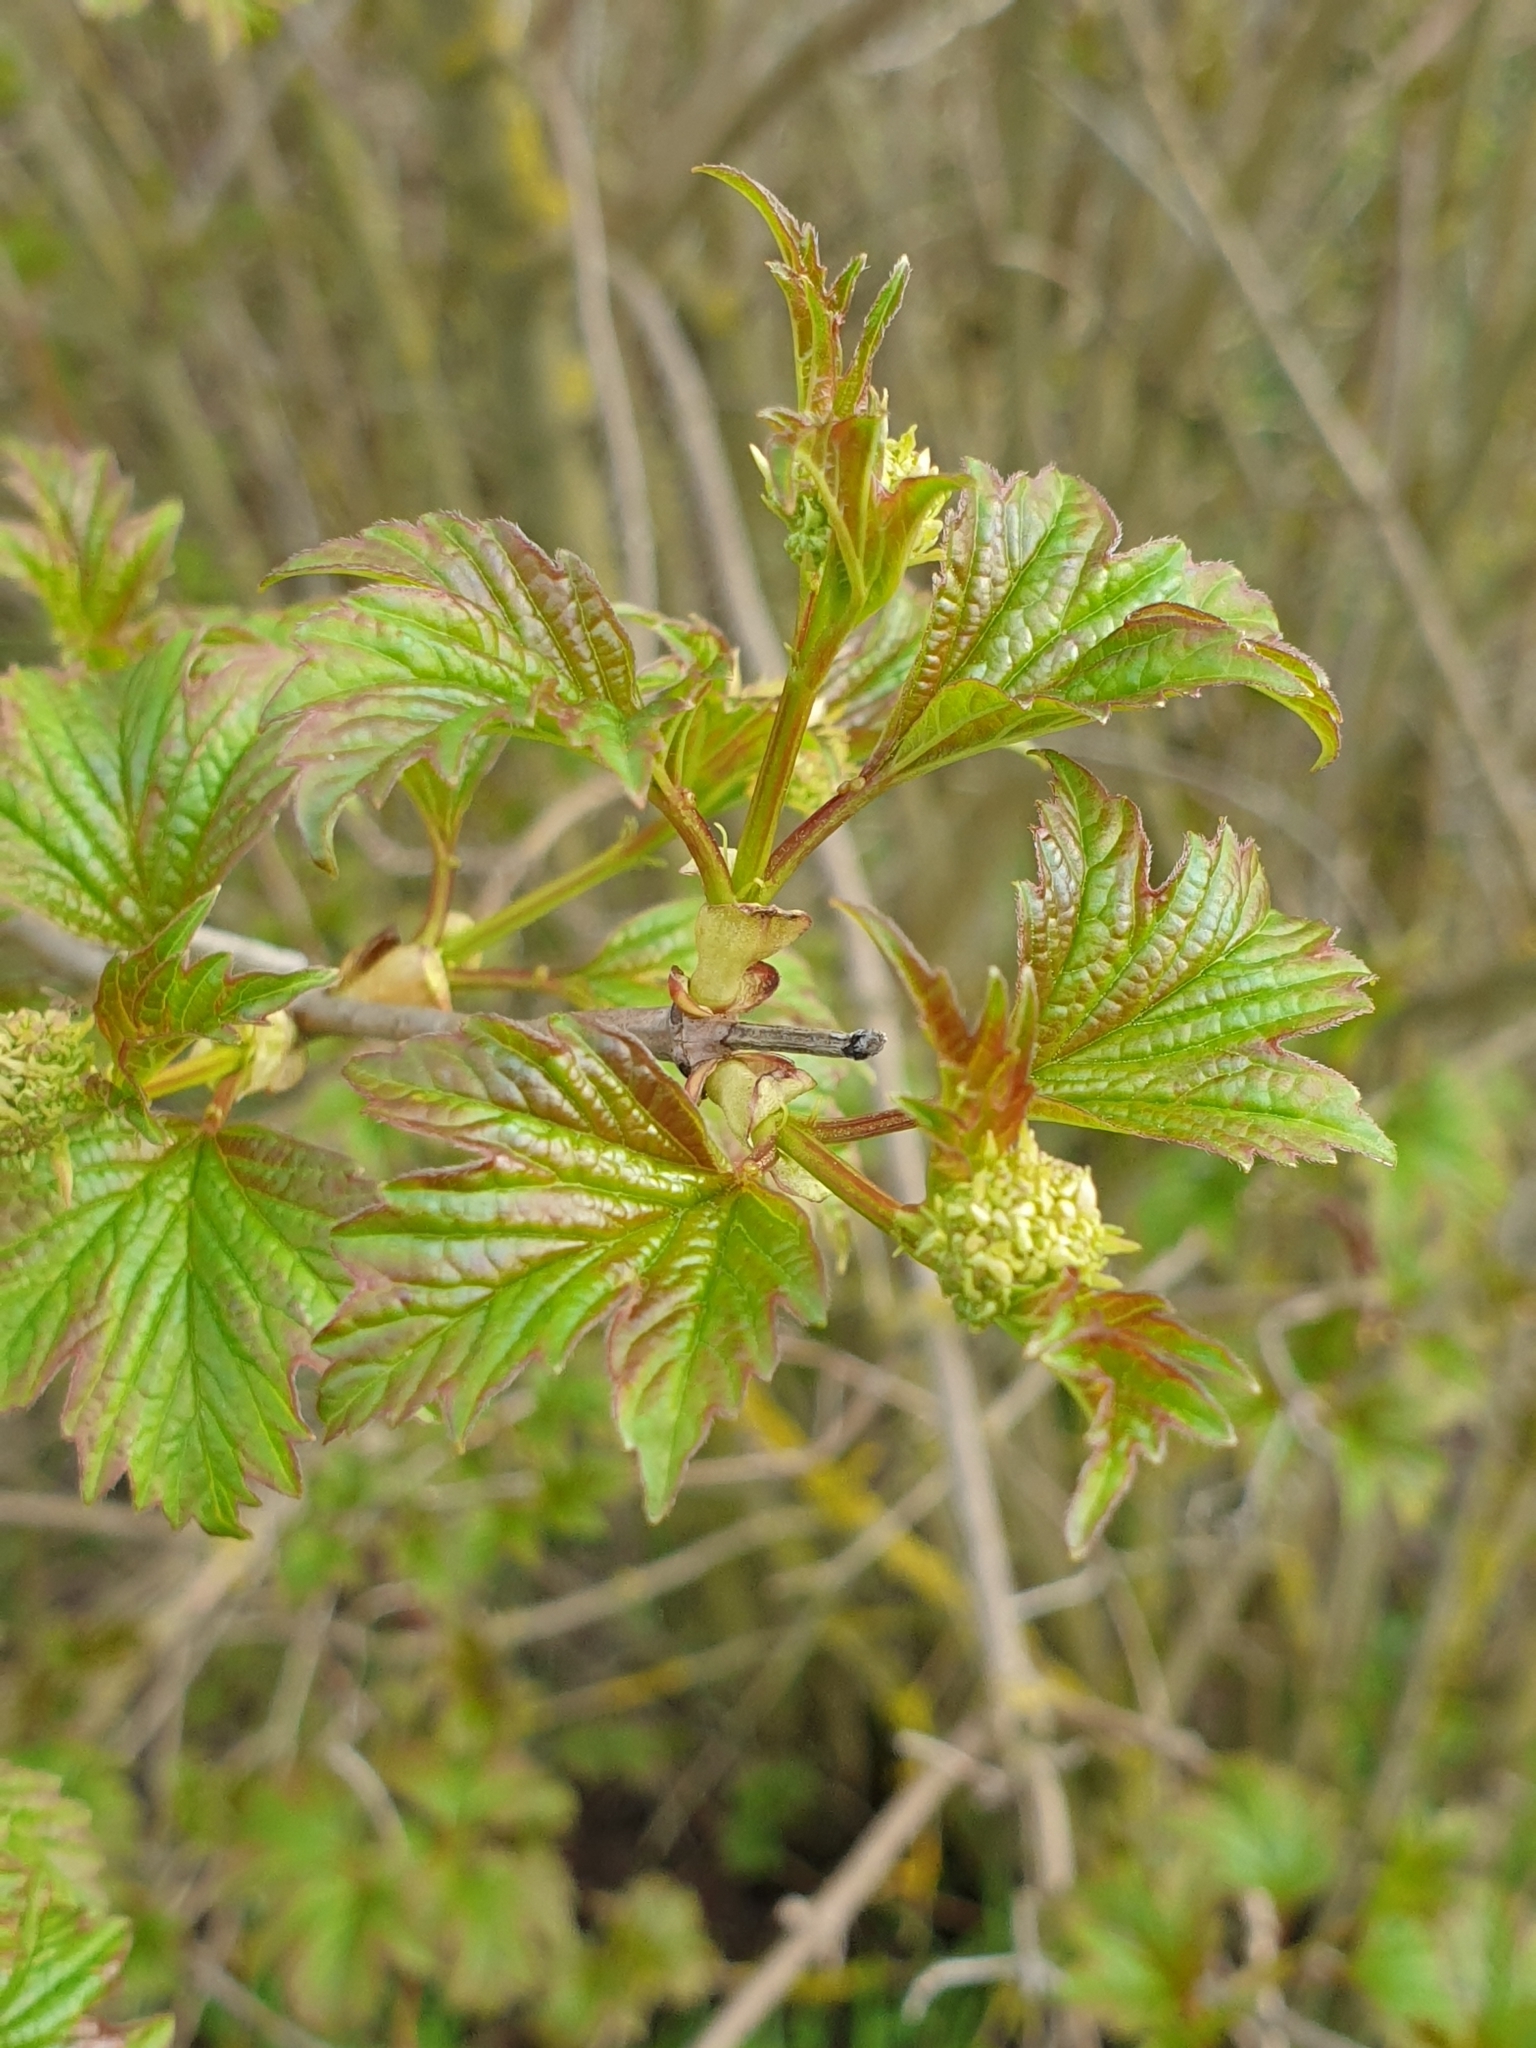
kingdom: Plantae
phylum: Tracheophyta
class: Magnoliopsida
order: Dipsacales
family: Viburnaceae
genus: Viburnum
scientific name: Viburnum opulus
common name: Guelder-rose
